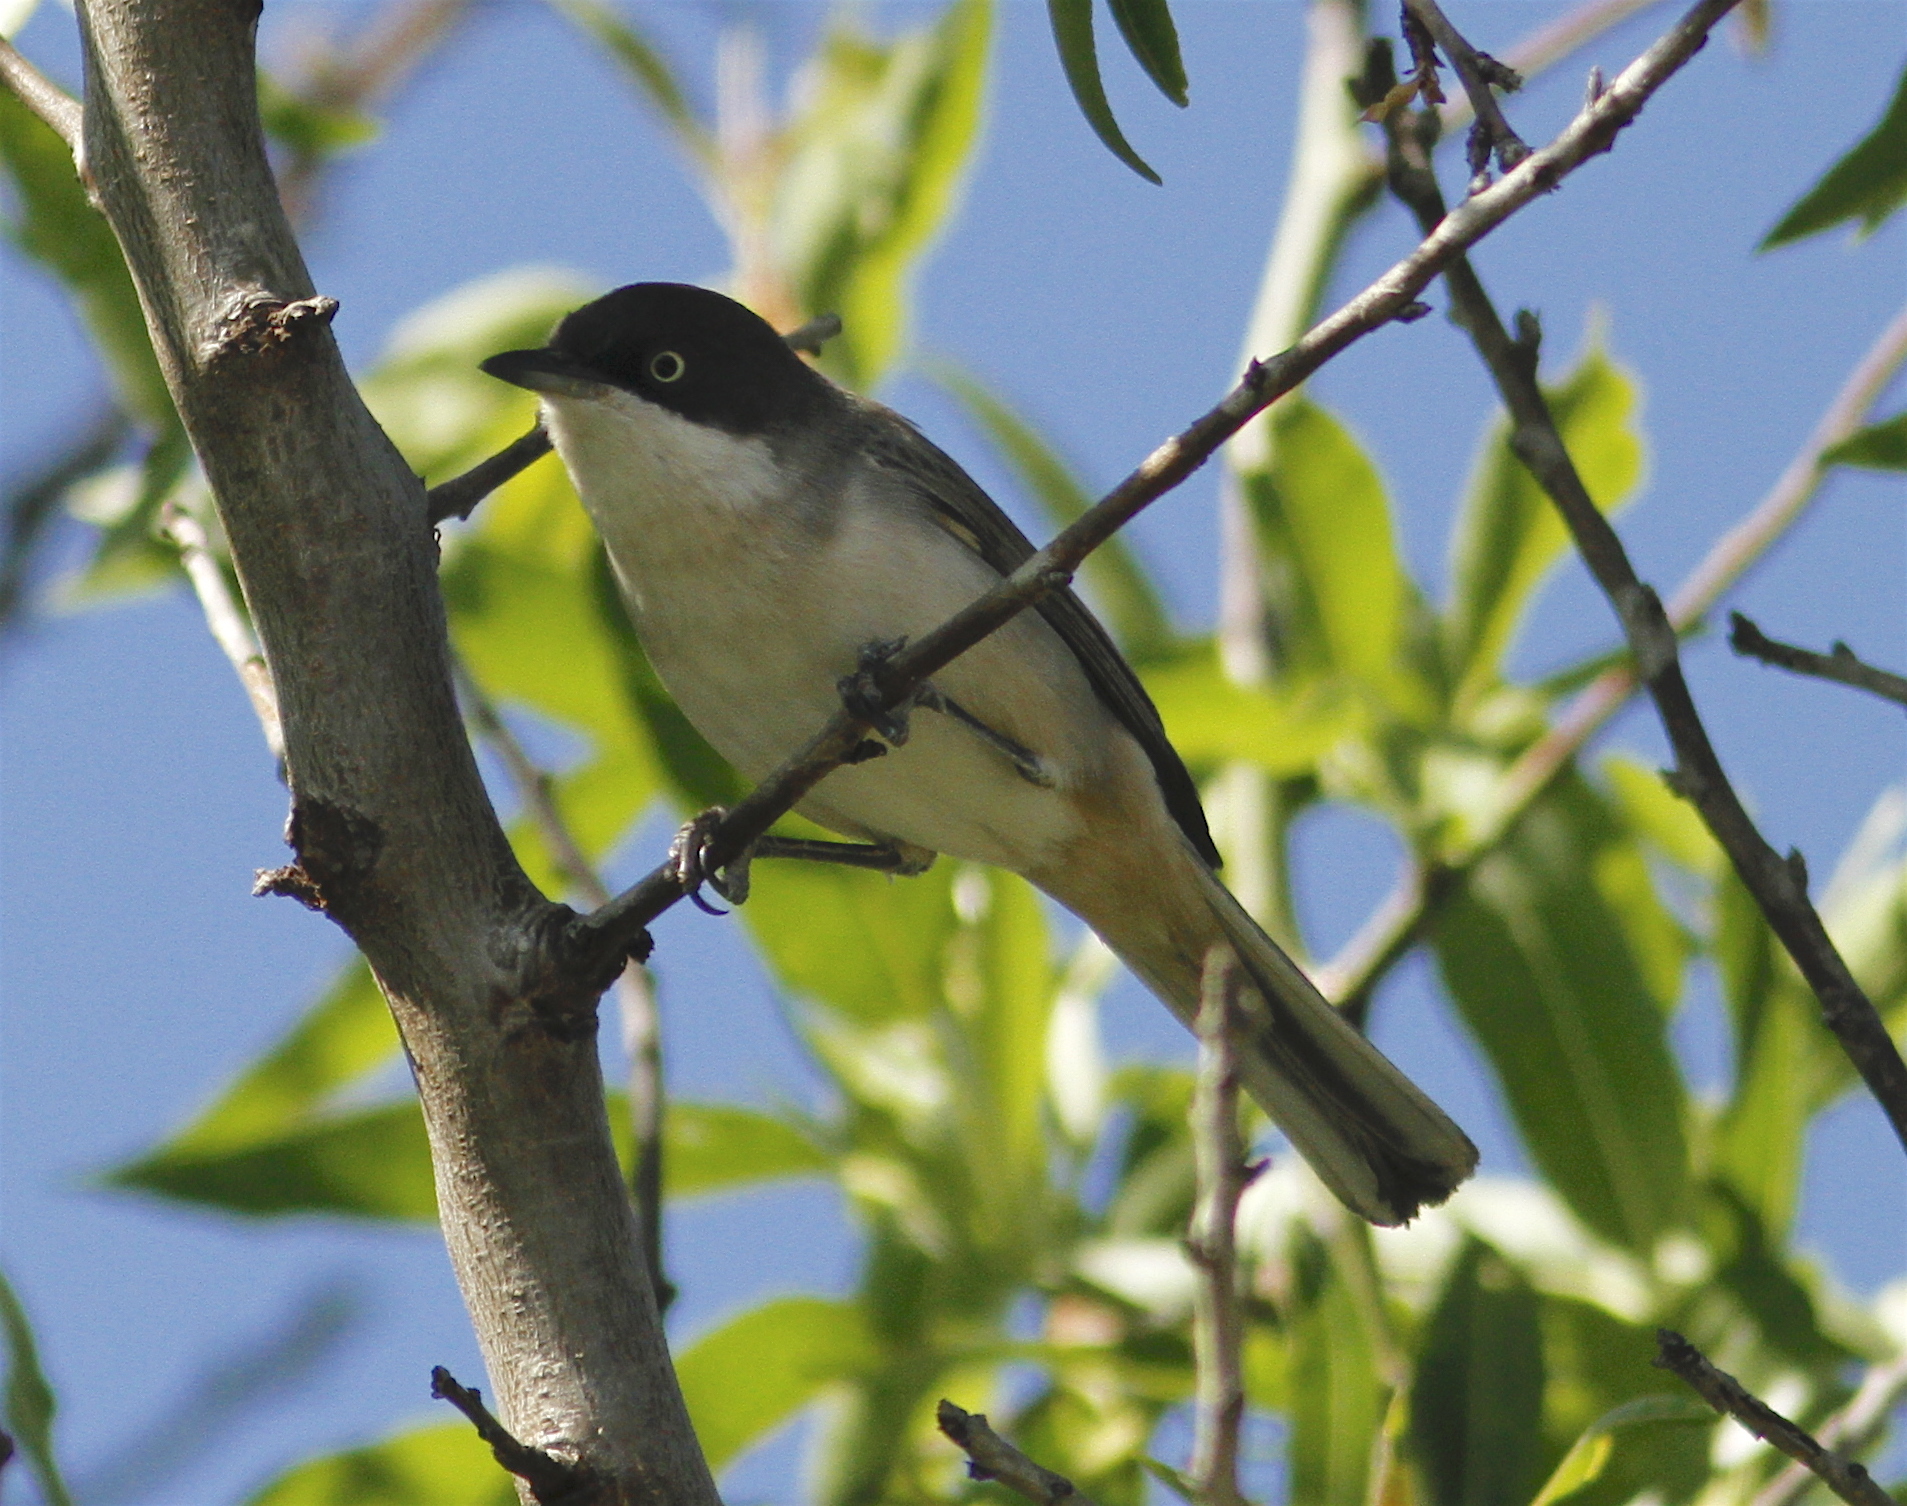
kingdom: Animalia
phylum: Chordata
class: Aves
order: Passeriformes
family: Sylviidae
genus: Sylvia
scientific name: Sylvia hortensis
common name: Orphean warbler
